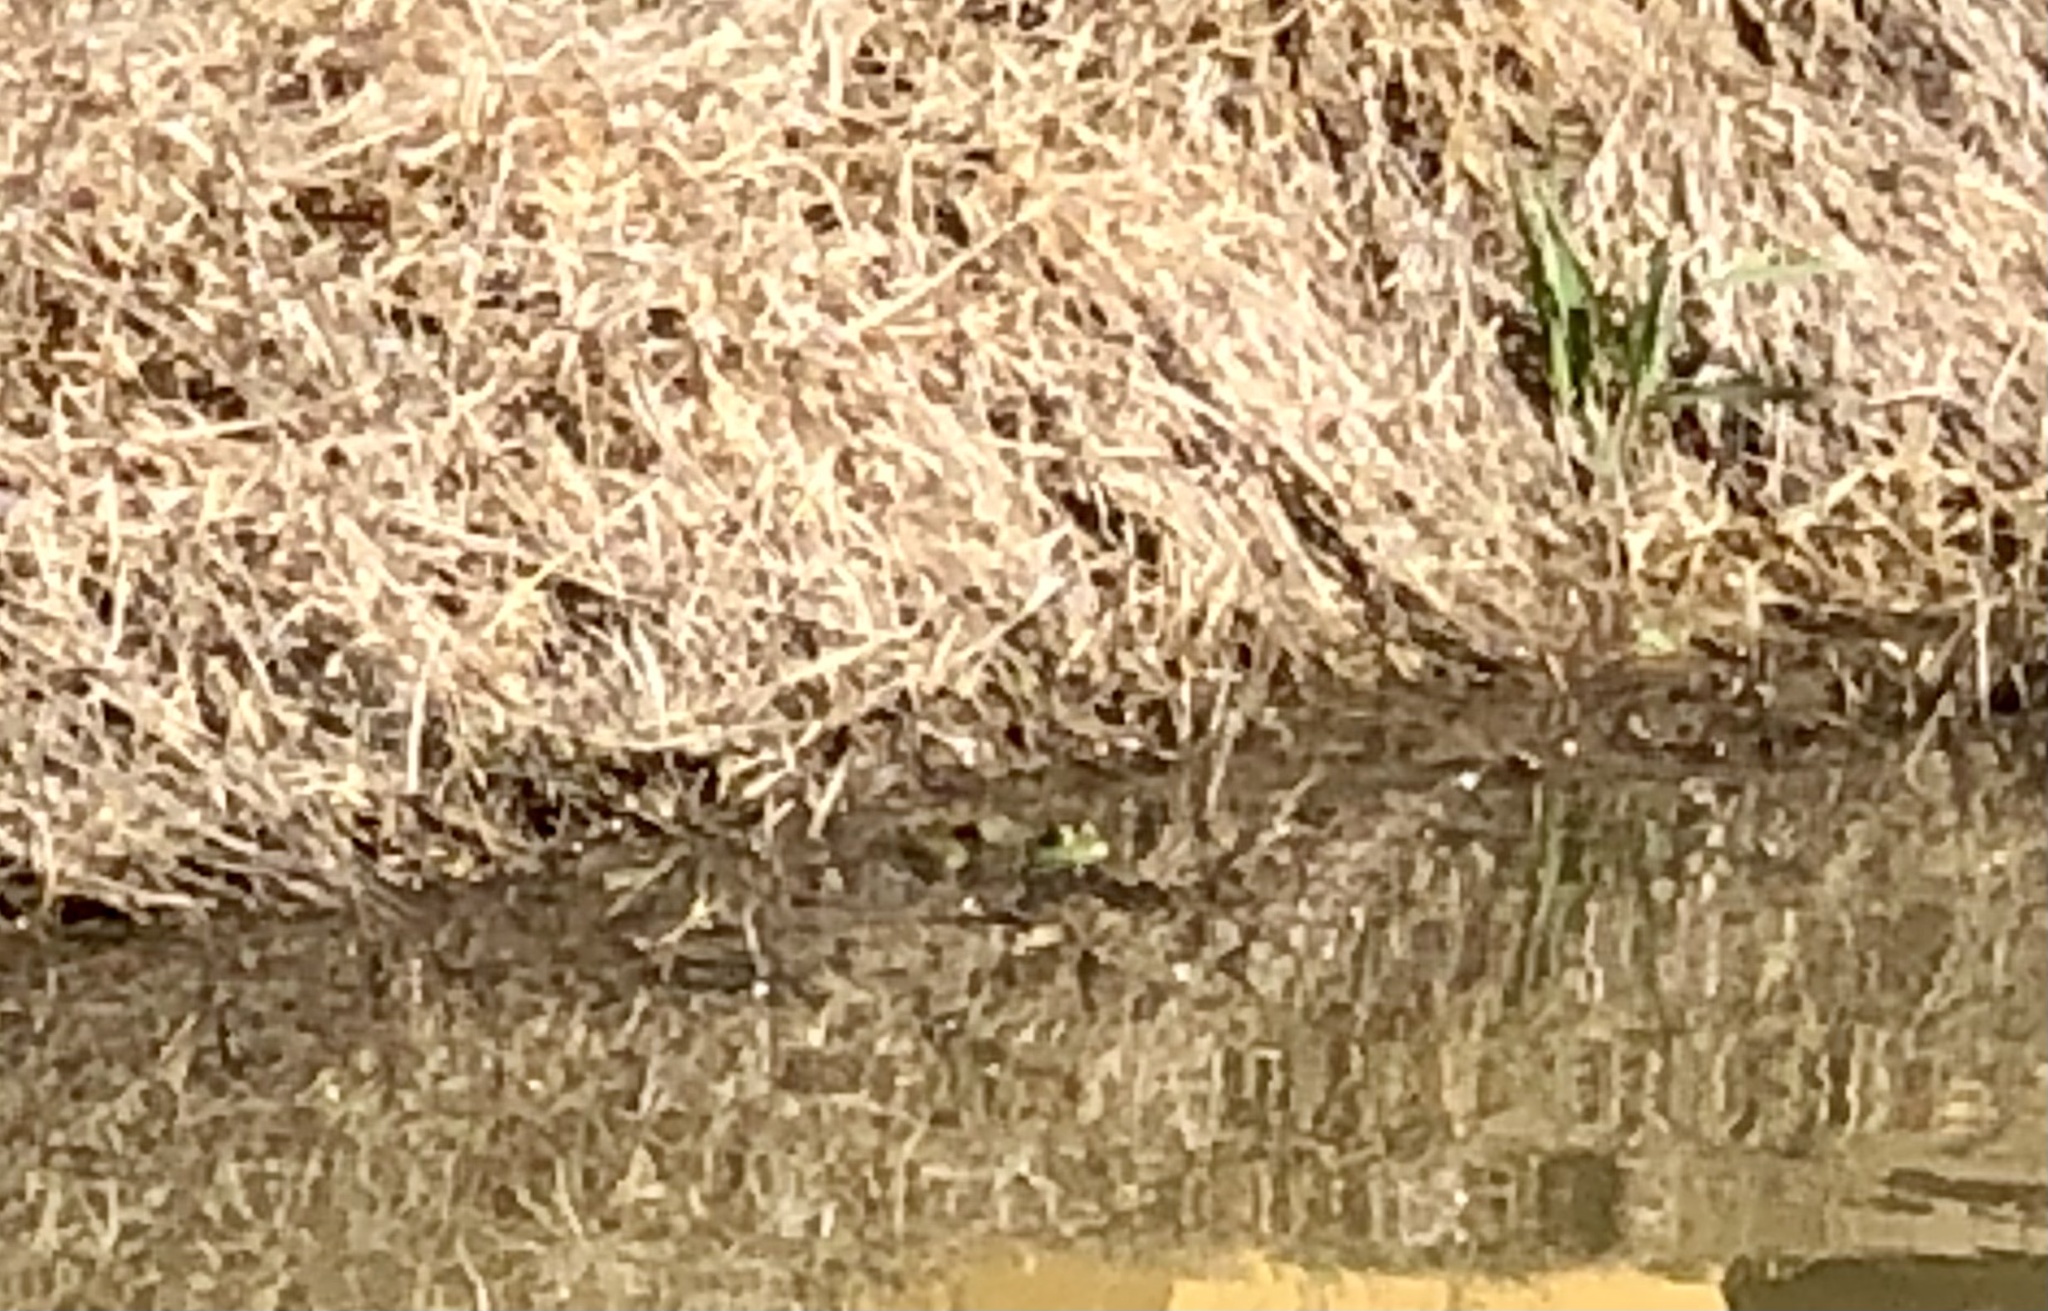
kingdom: Animalia
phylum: Chordata
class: Amphibia
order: Anura
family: Ranidae
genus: Lithobates
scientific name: Lithobates catesbeianus
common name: American bullfrog
